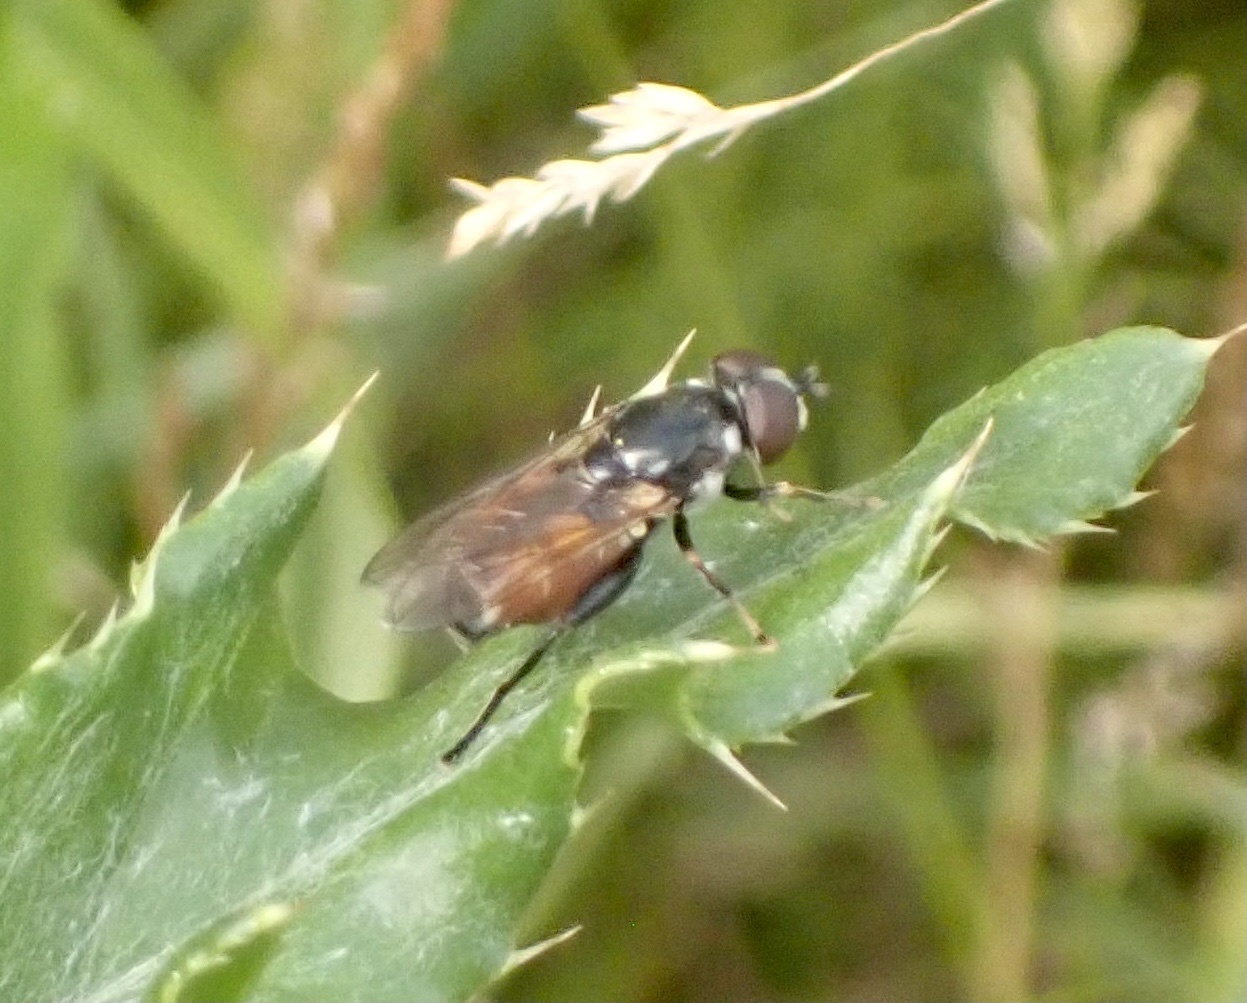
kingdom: Animalia
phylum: Arthropoda
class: Insecta
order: Diptera
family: Syrphidae
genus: Tropidia
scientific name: Tropidia scita
